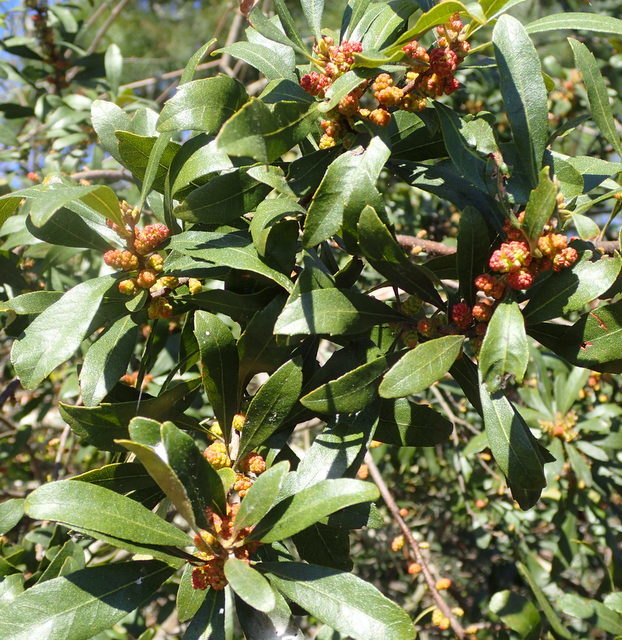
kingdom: Plantae
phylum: Tracheophyta
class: Magnoliopsida
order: Fagales
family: Myricaceae
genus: Morella
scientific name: Morella cerifera
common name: Wax myrtle
